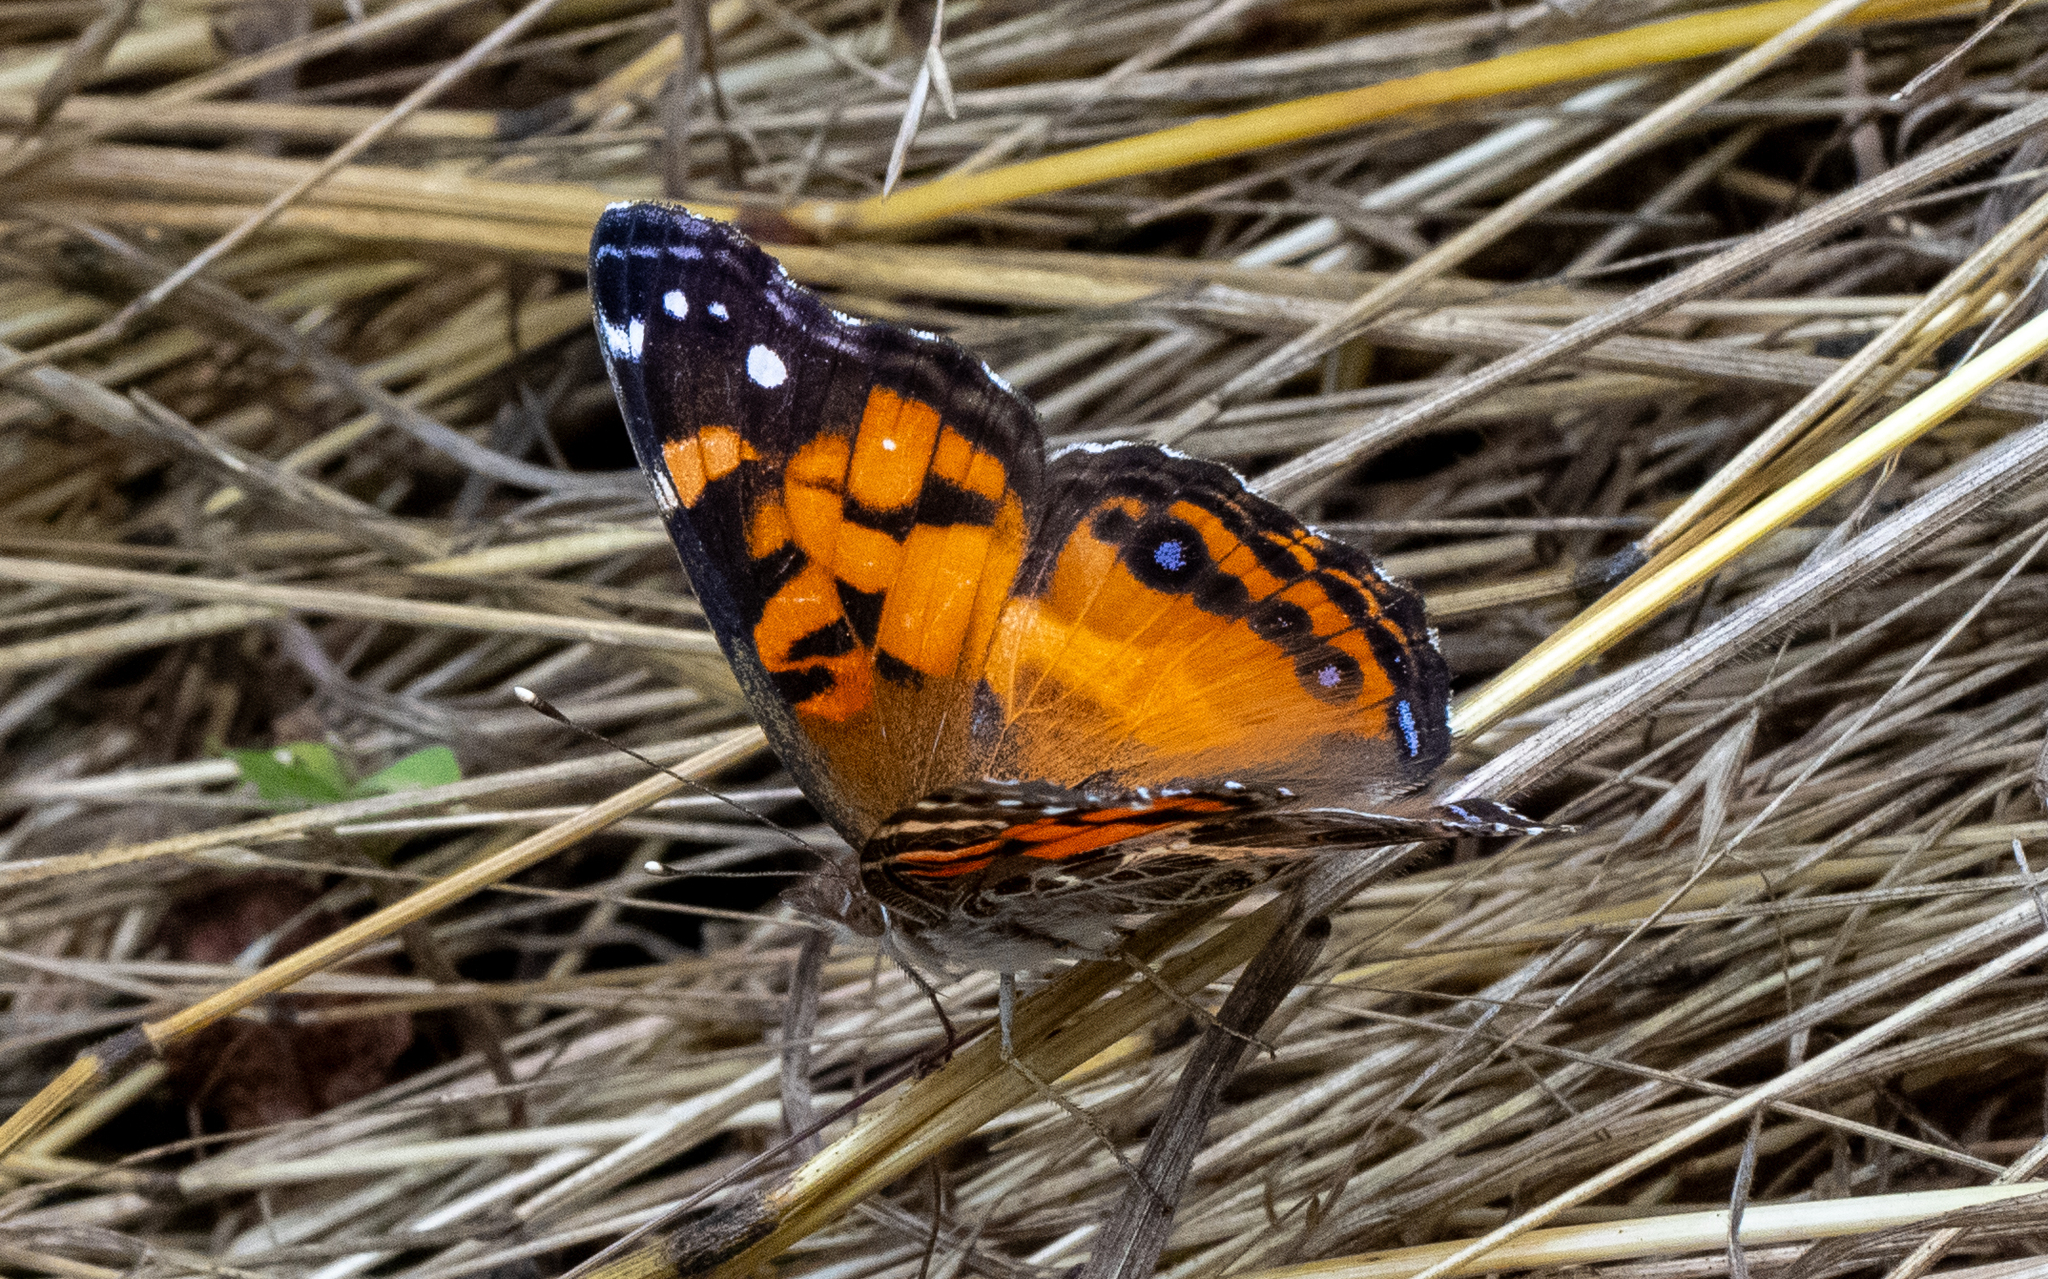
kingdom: Animalia
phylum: Arthropoda
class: Insecta
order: Lepidoptera
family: Nymphalidae
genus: Vanessa
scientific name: Vanessa virginiensis
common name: American lady
